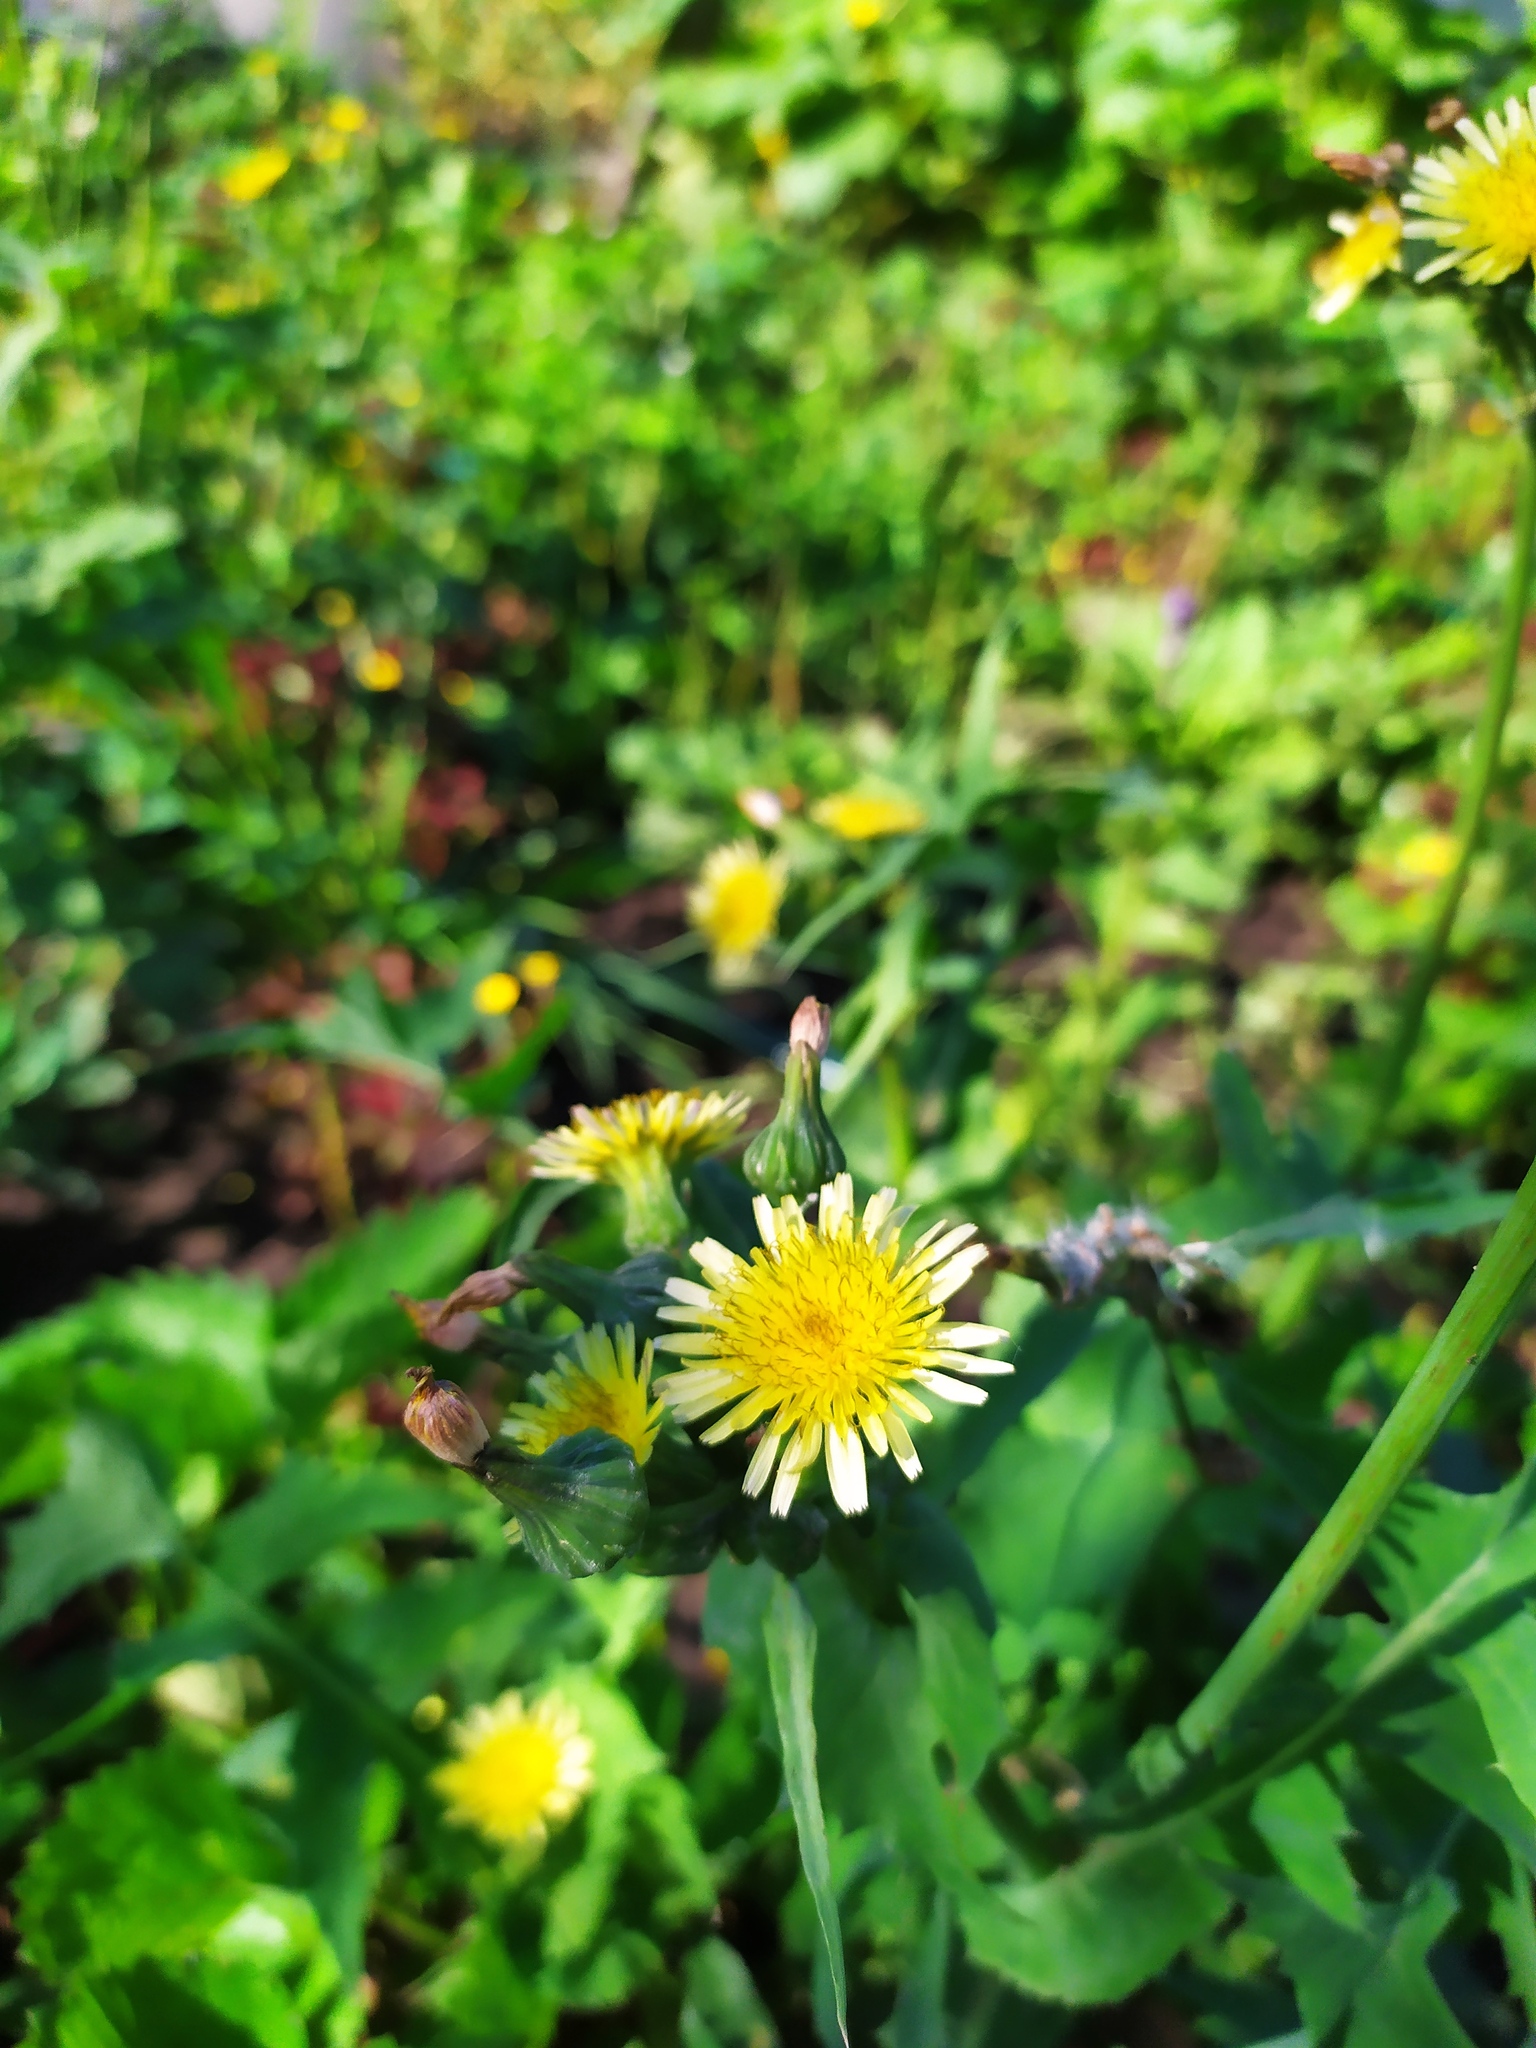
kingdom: Plantae
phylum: Tracheophyta
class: Magnoliopsida
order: Asterales
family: Asteraceae
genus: Sonchus
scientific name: Sonchus oleraceus
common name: Common sowthistle
